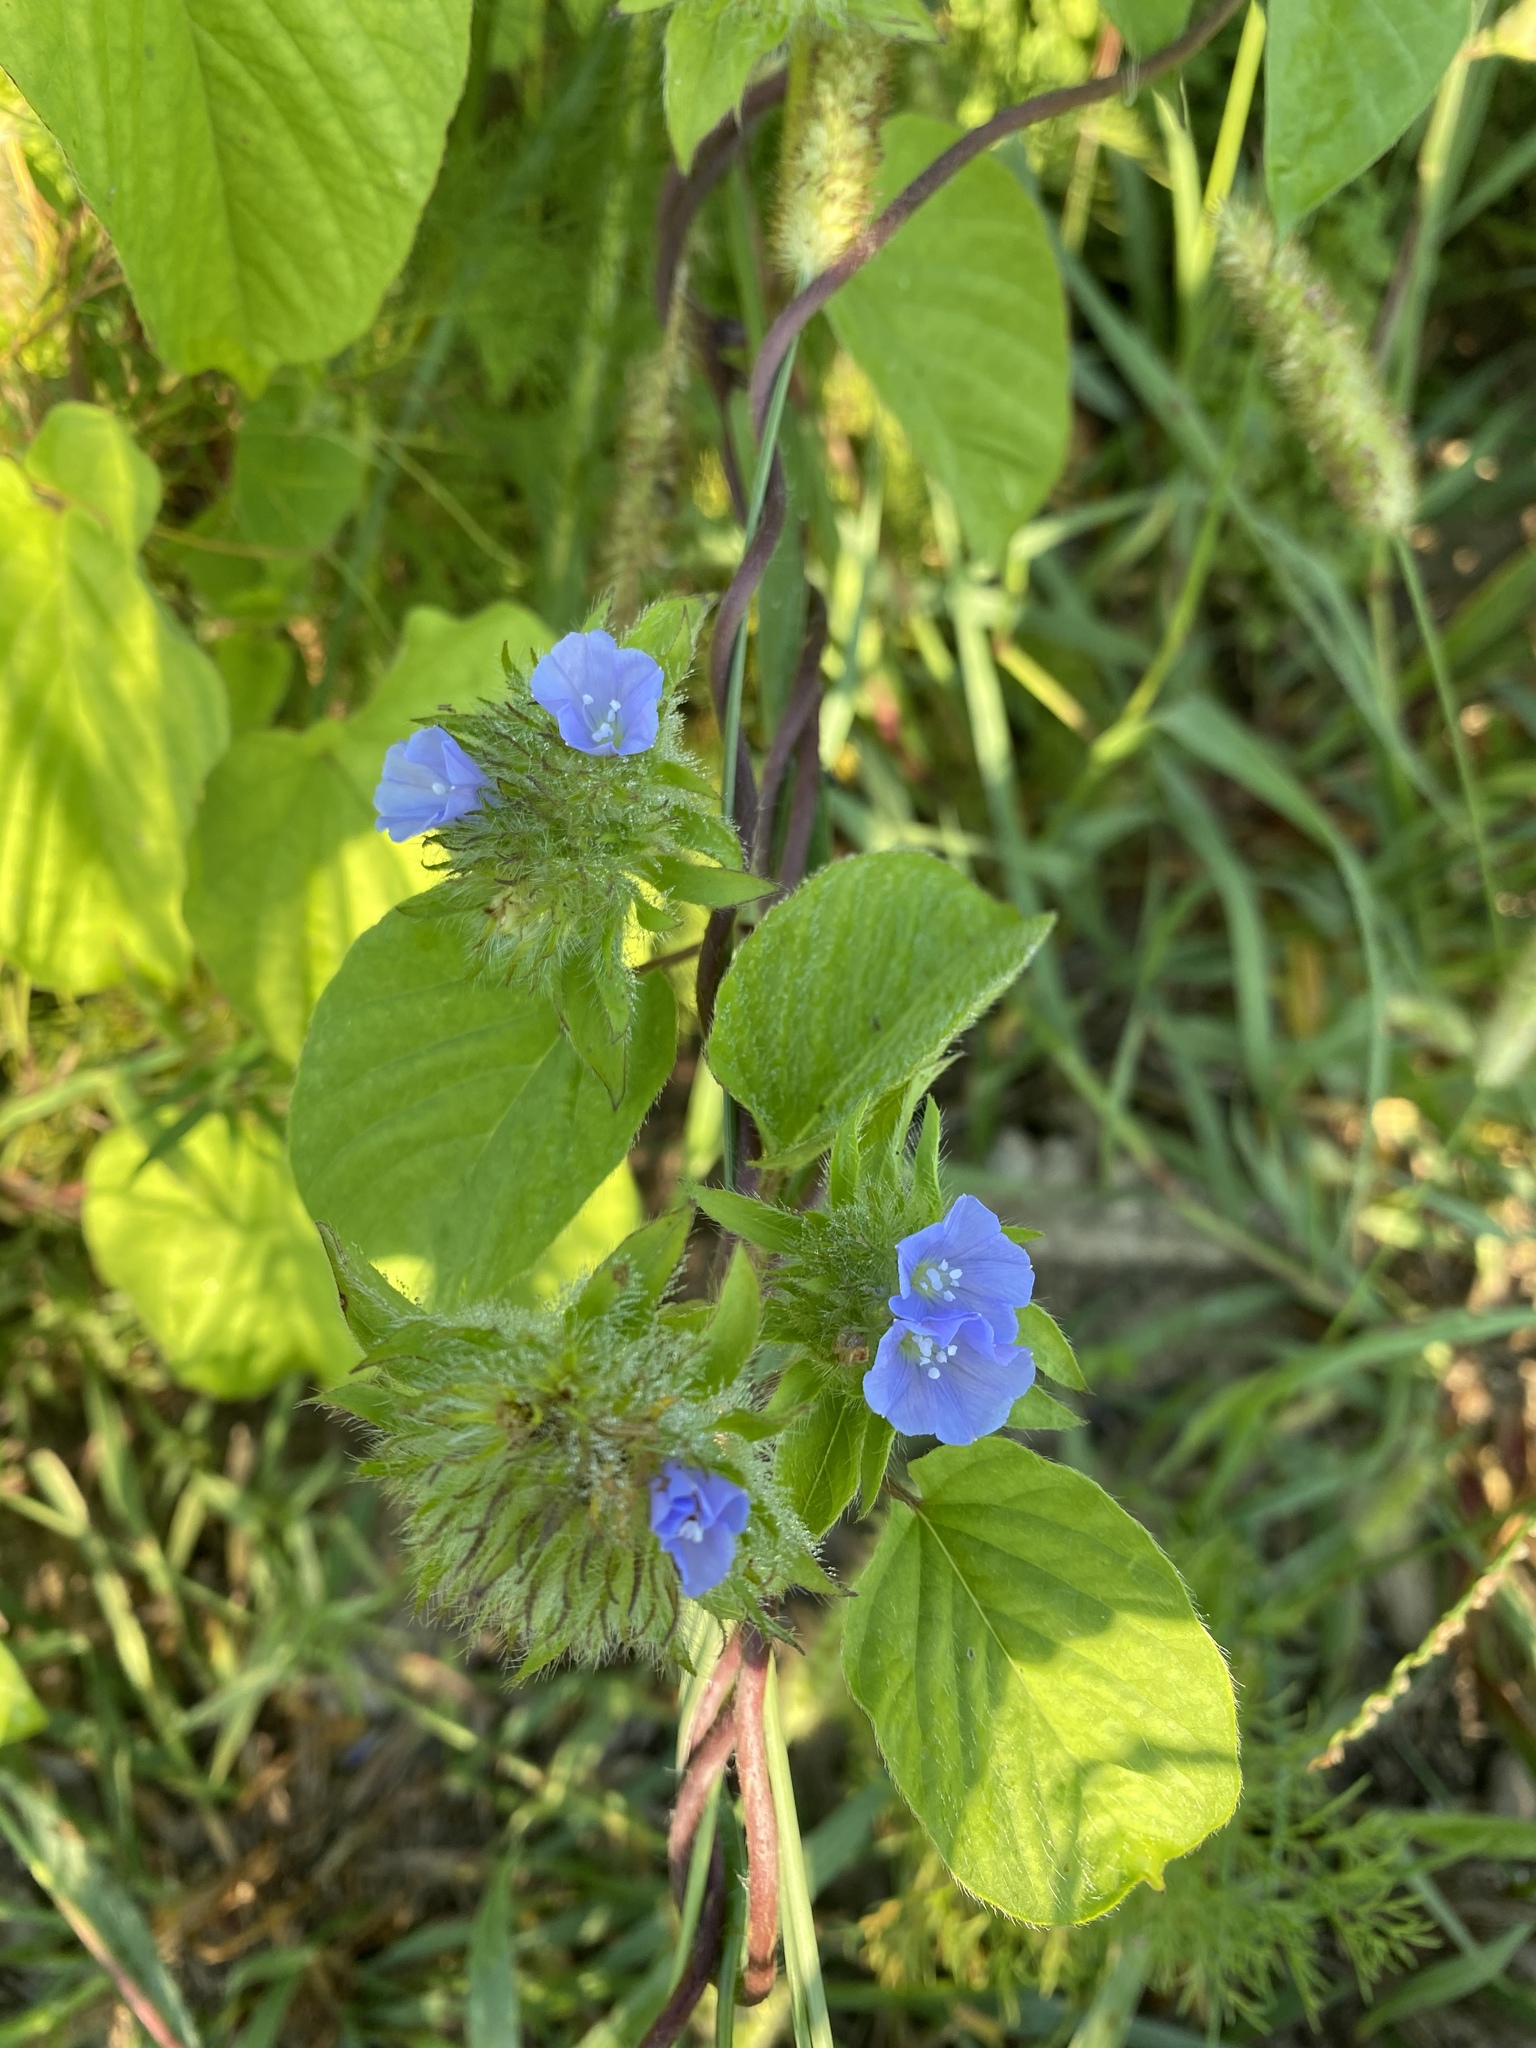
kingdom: Plantae
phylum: Tracheophyta
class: Magnoliopsida
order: Solanales
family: Convolvulaceae
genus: Jacquemontia
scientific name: Jacquemontia tamnifolia
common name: Hairy clustervine
